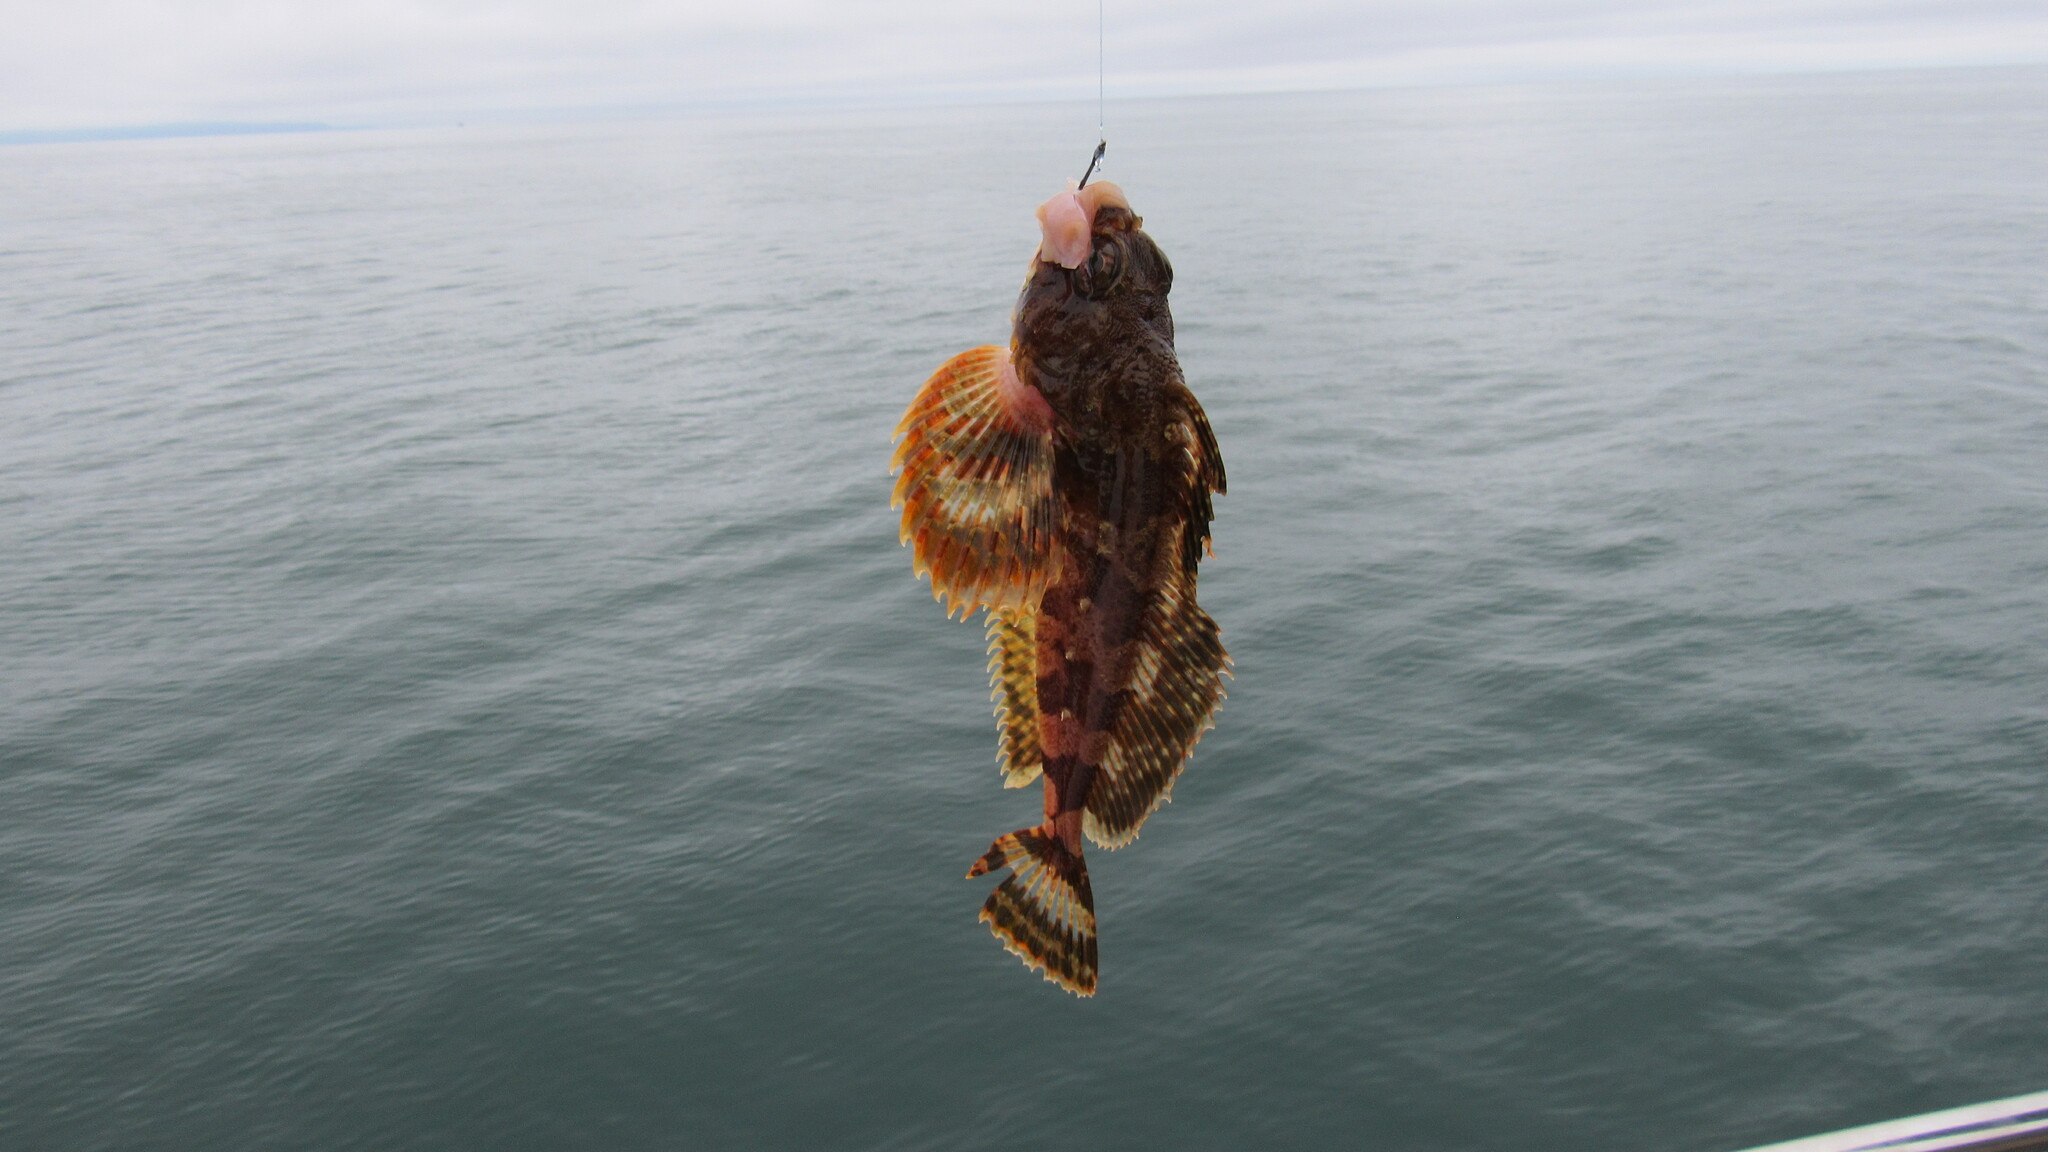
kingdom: Animalia
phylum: Chordata
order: Scorpaeniformes
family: Cottidae
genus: Hemilepidotus
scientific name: Hemilepidotus papilio
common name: Butterfly sculpin
